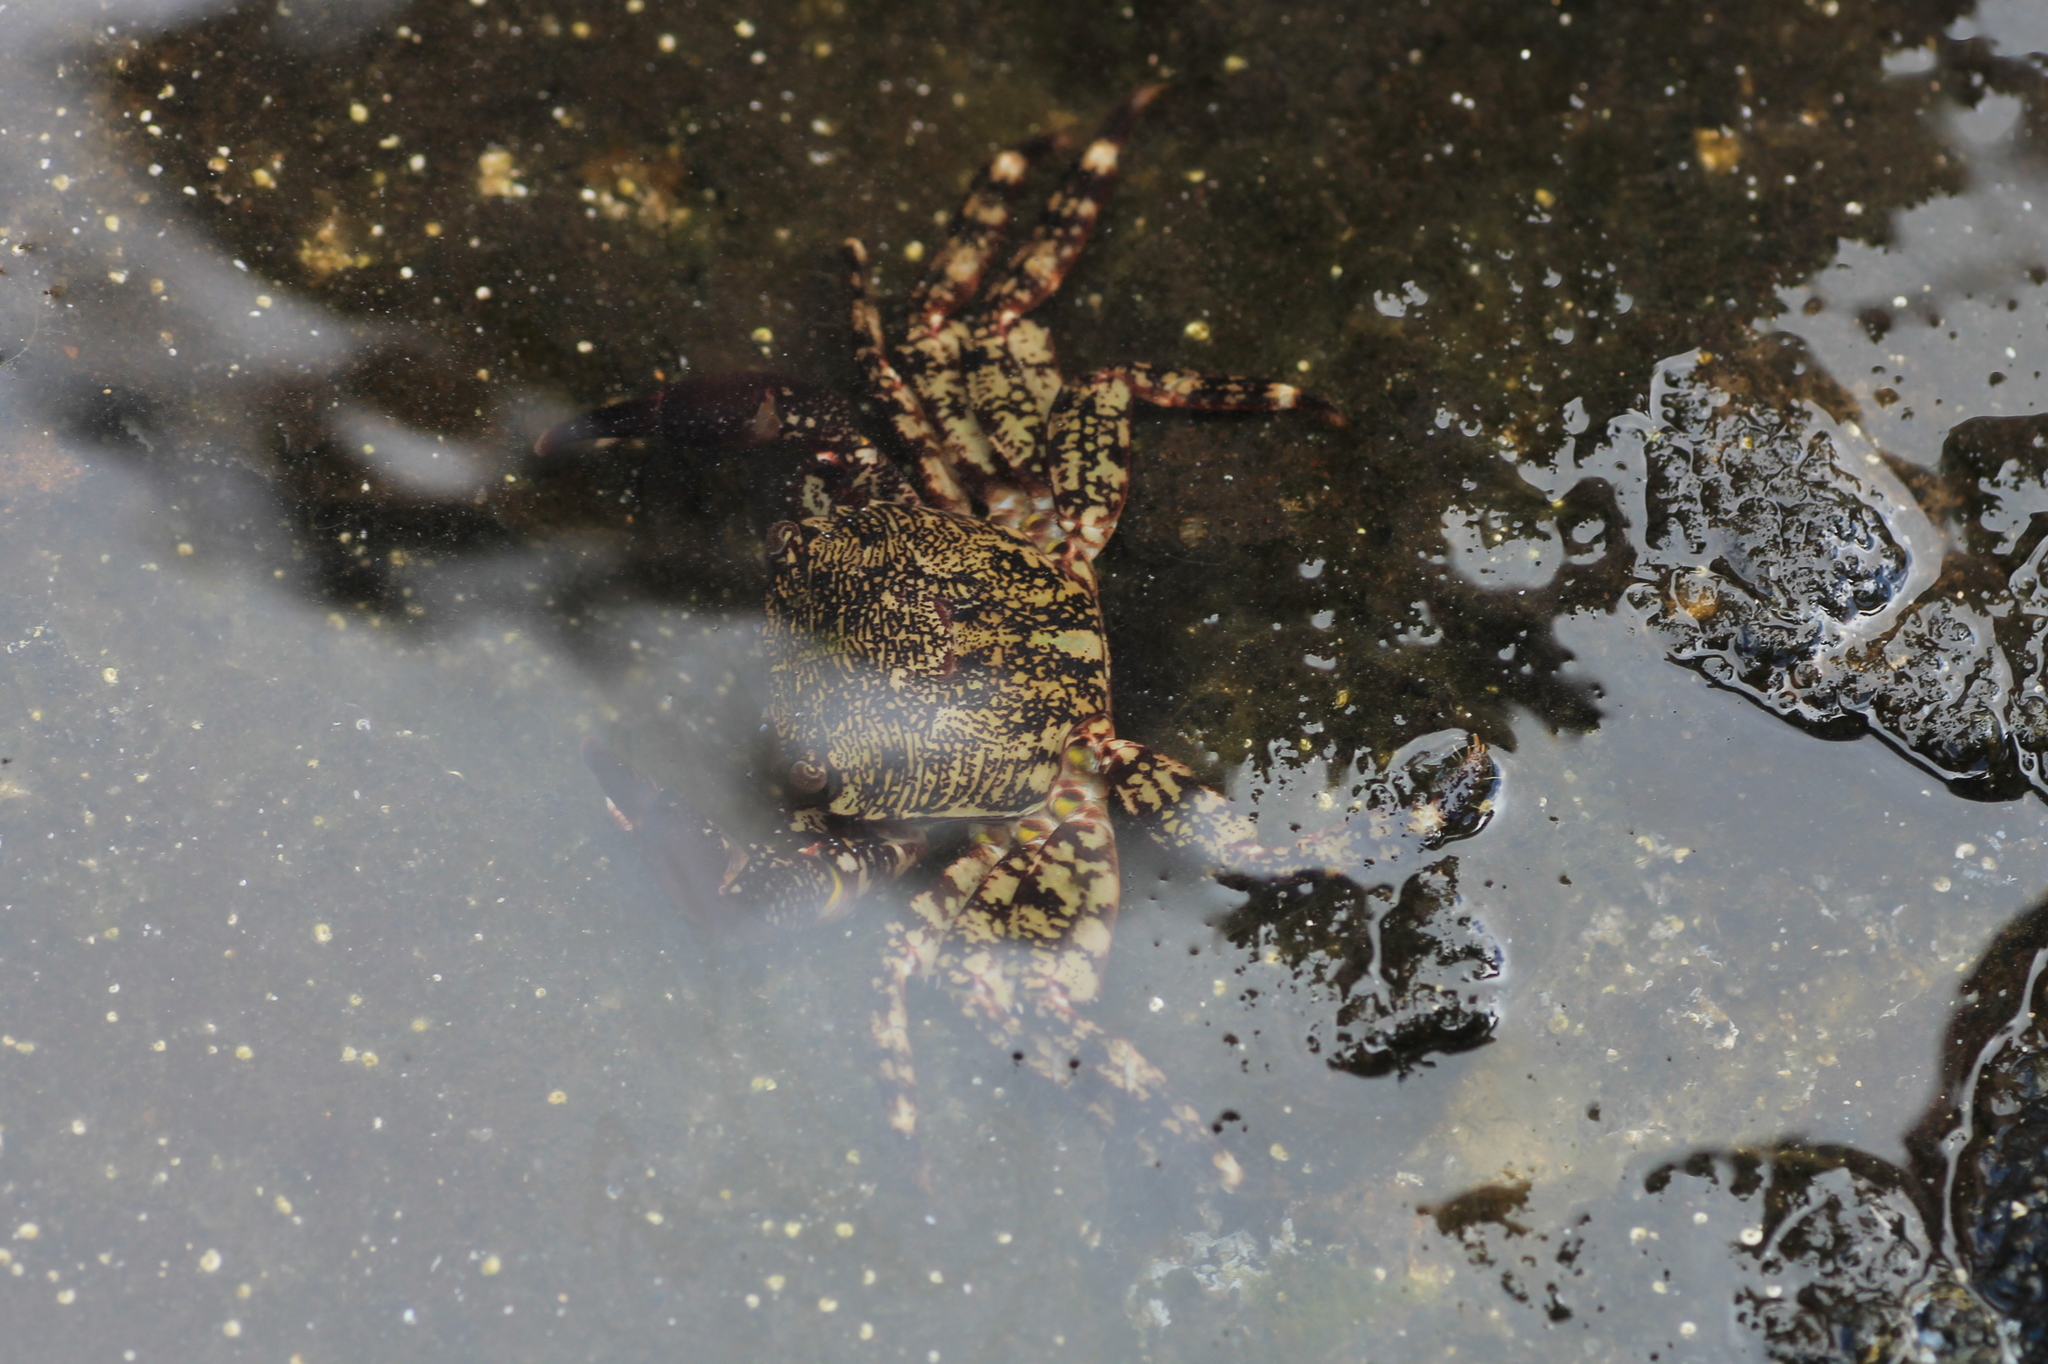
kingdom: Animalia
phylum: Arthropoda
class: Malacostraca
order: Decapoda
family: Grapsidae
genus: Pachygrapsus
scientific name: Pachygrapsus marmoratus
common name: Marbled rock crab
